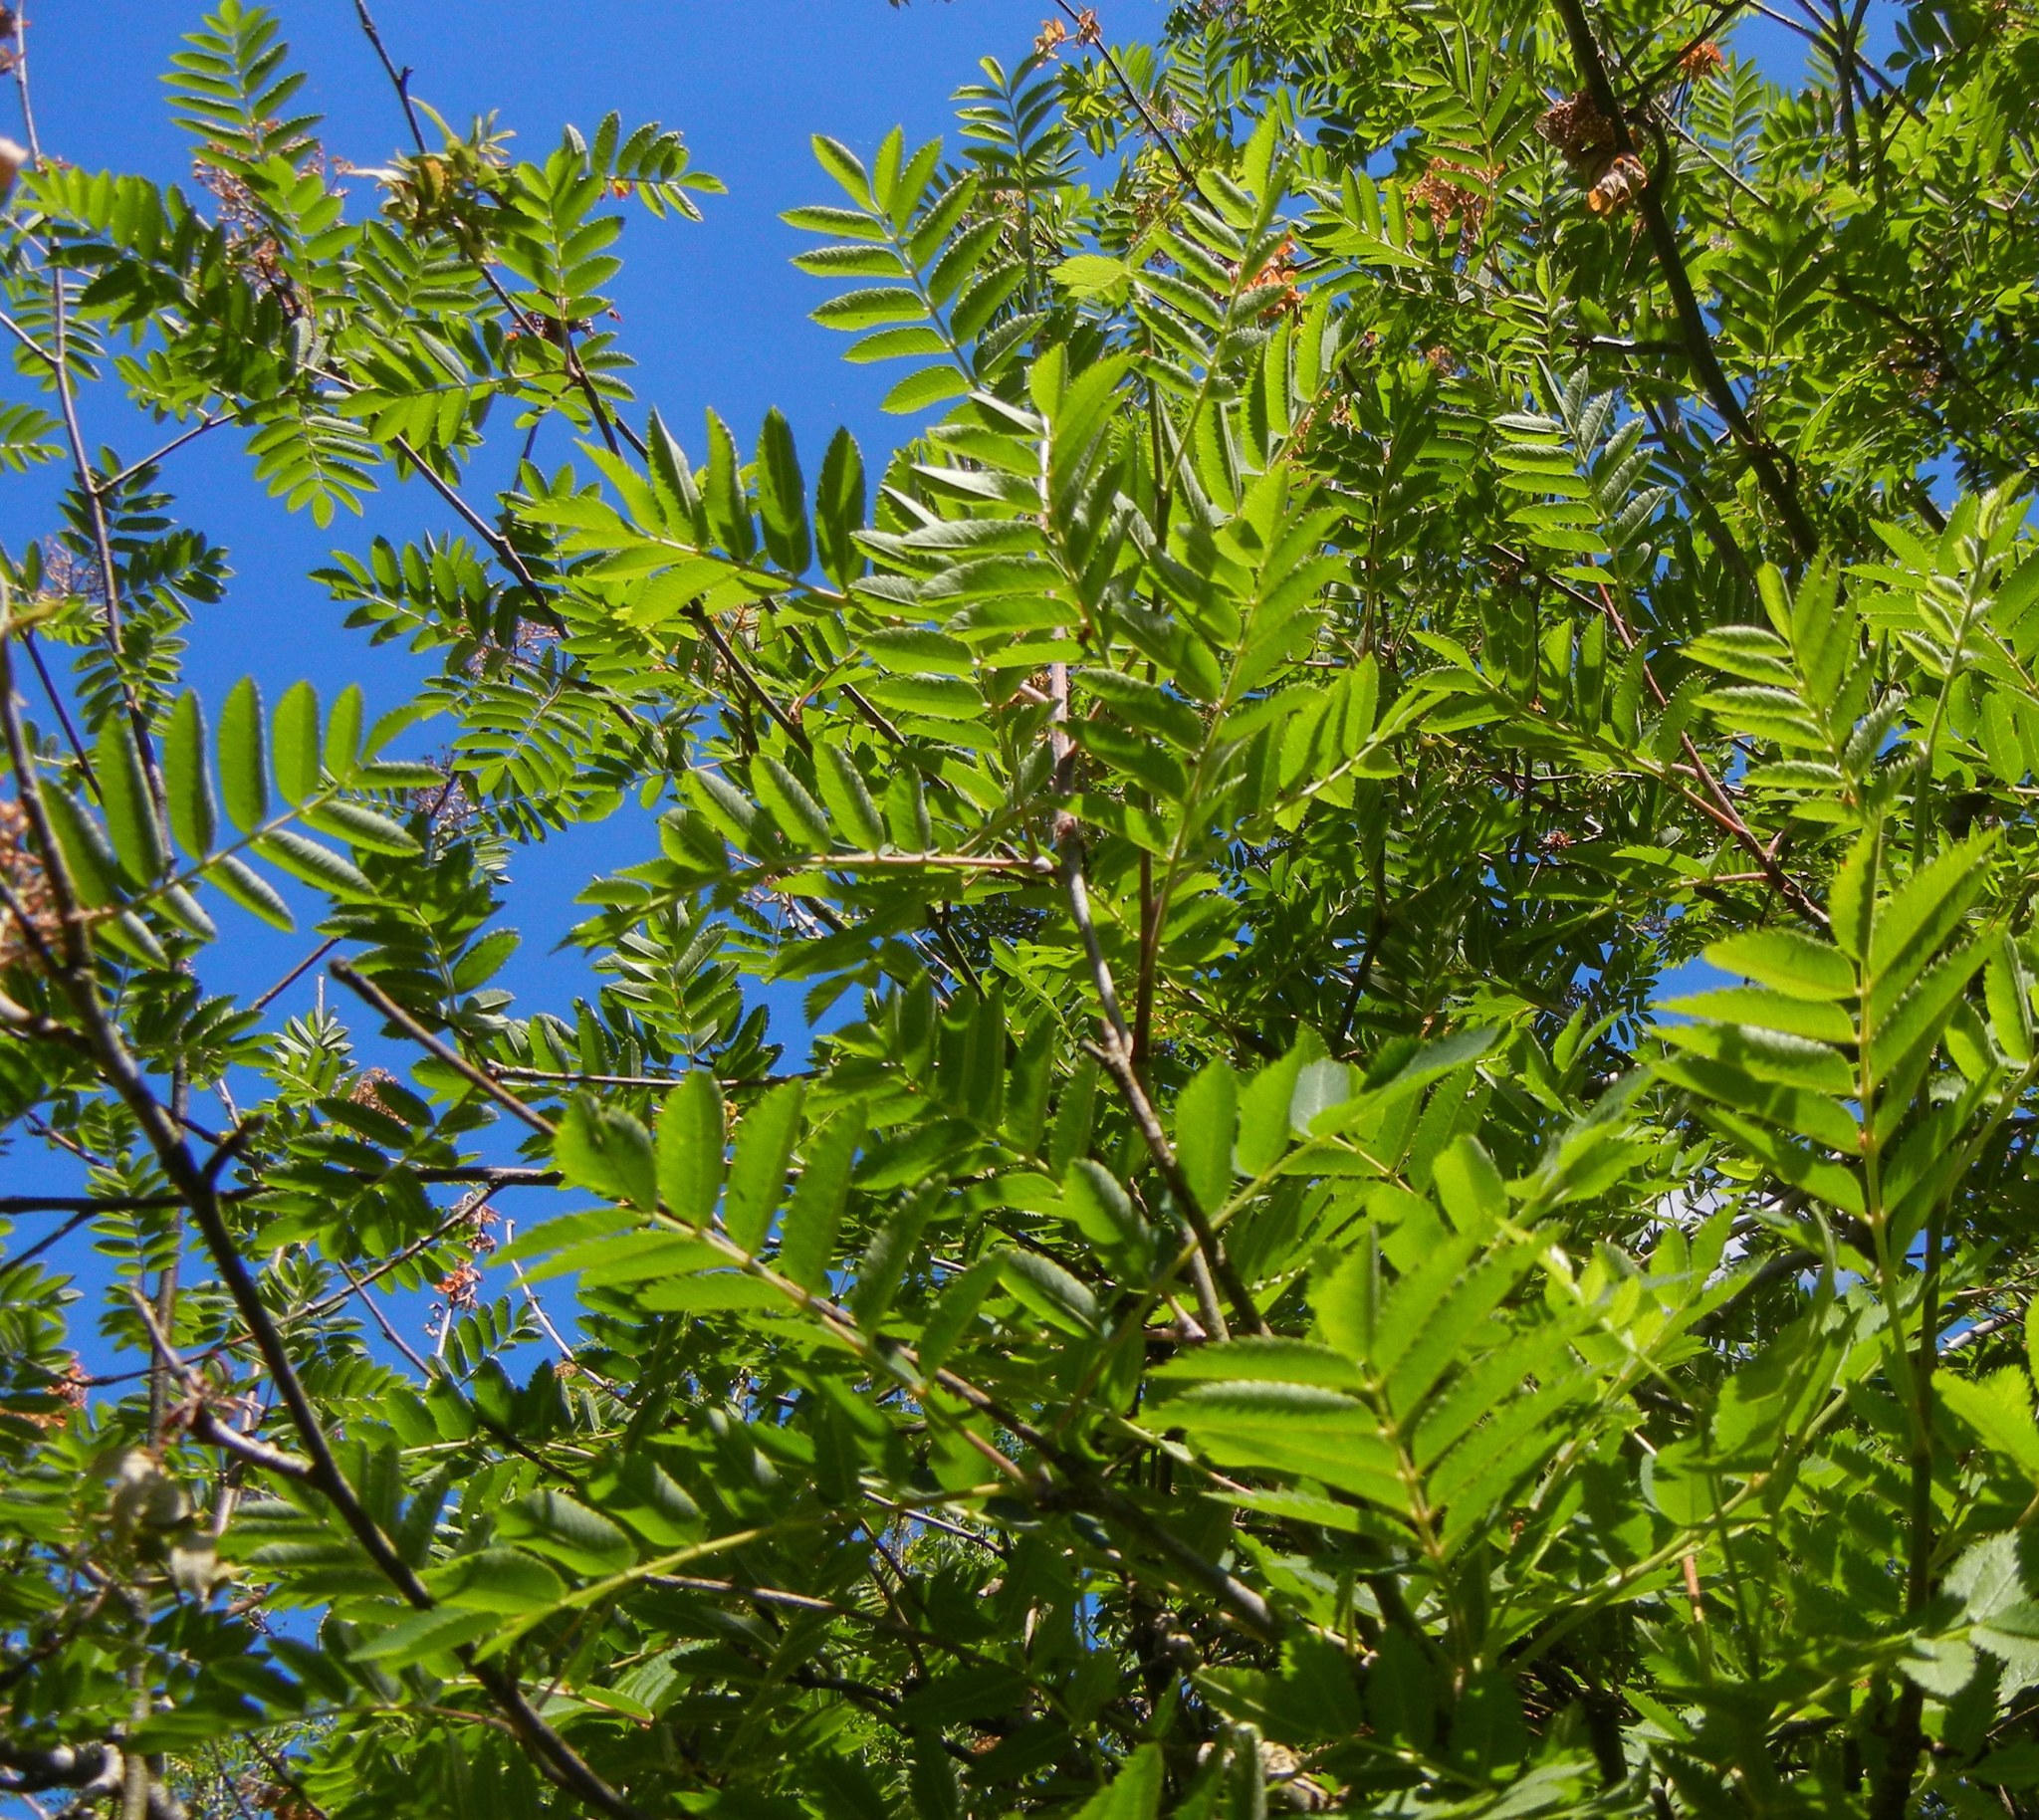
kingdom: Plantae
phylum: Tracheophyta
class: Magnoliopsida
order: Rosales
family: Rosaceae
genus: Sorbus
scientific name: Sorbus aucuparia
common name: Rowan
